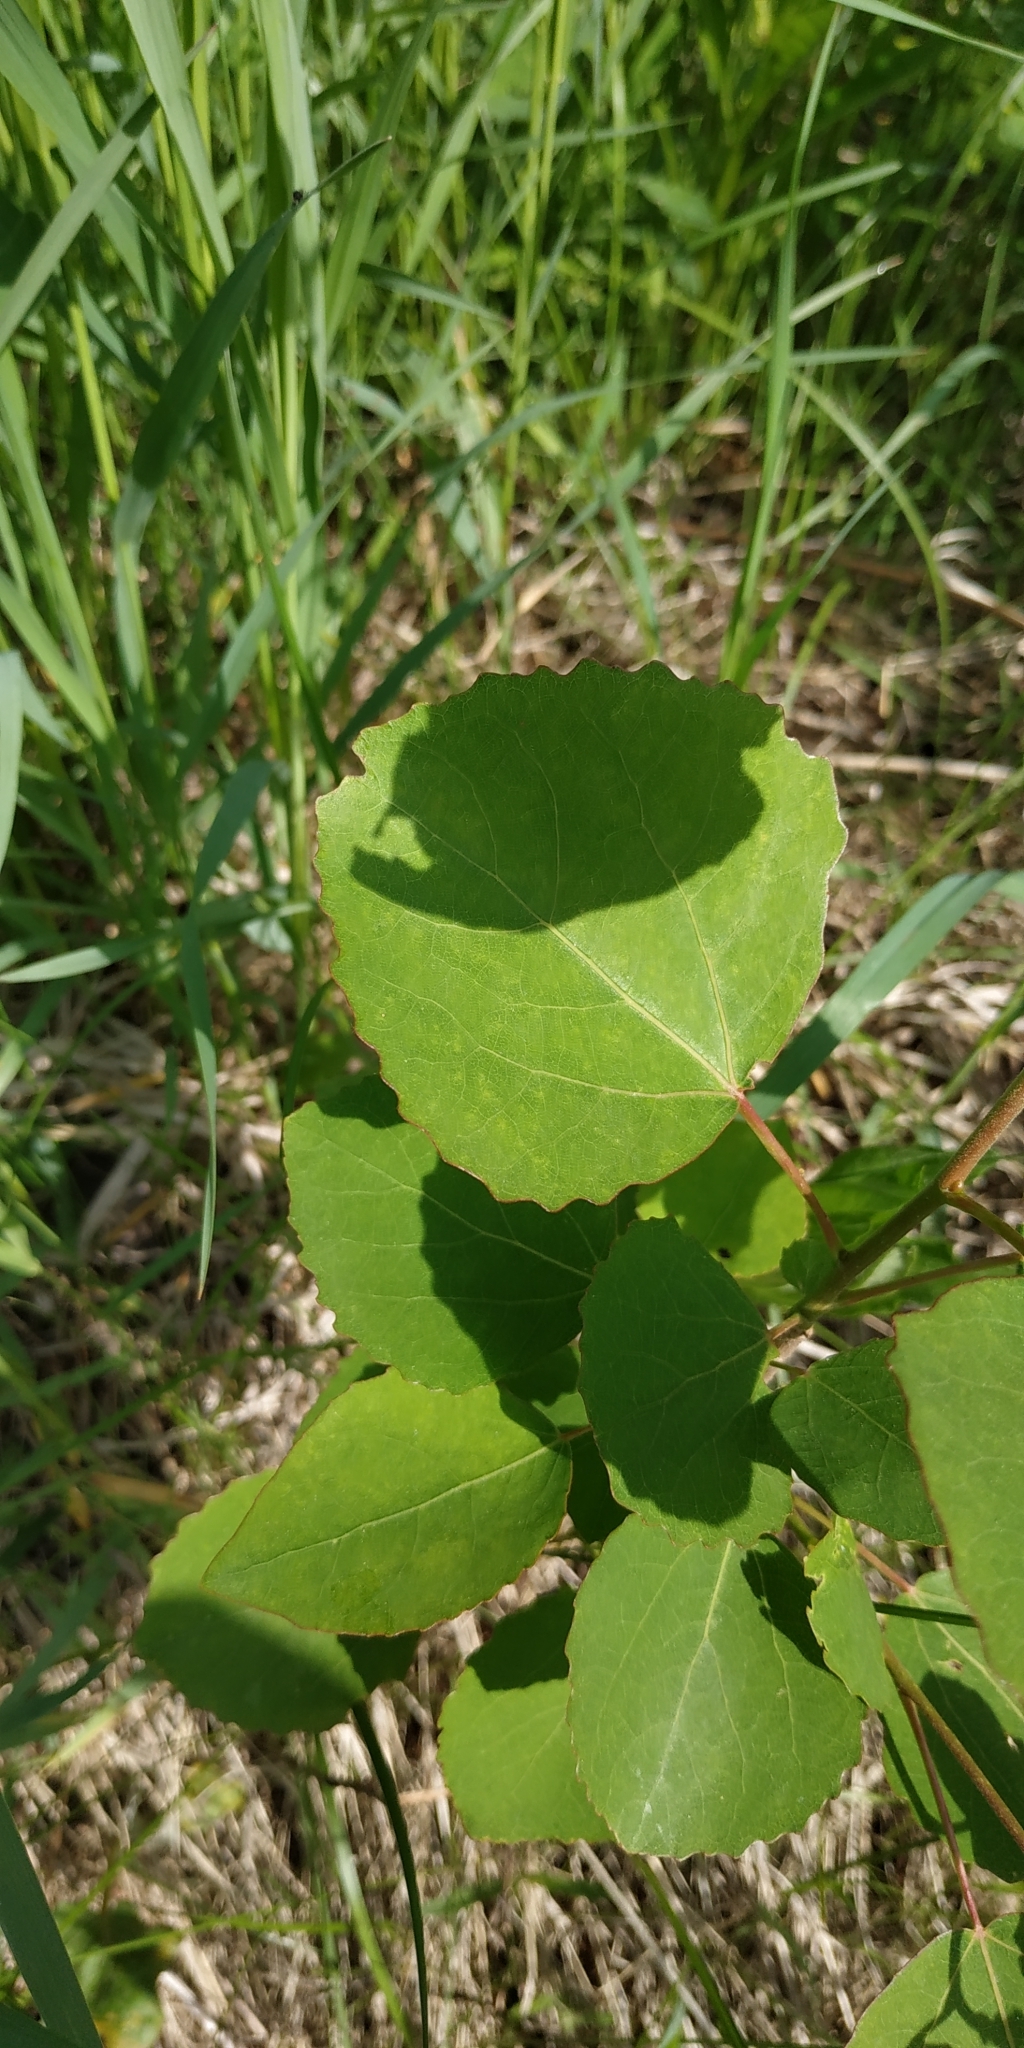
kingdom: Plantae
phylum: Tracheophyta
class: Magnoliopsida
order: Malpighiales
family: Salicaceae
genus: Populus
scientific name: Populus tremula
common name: European aspen
